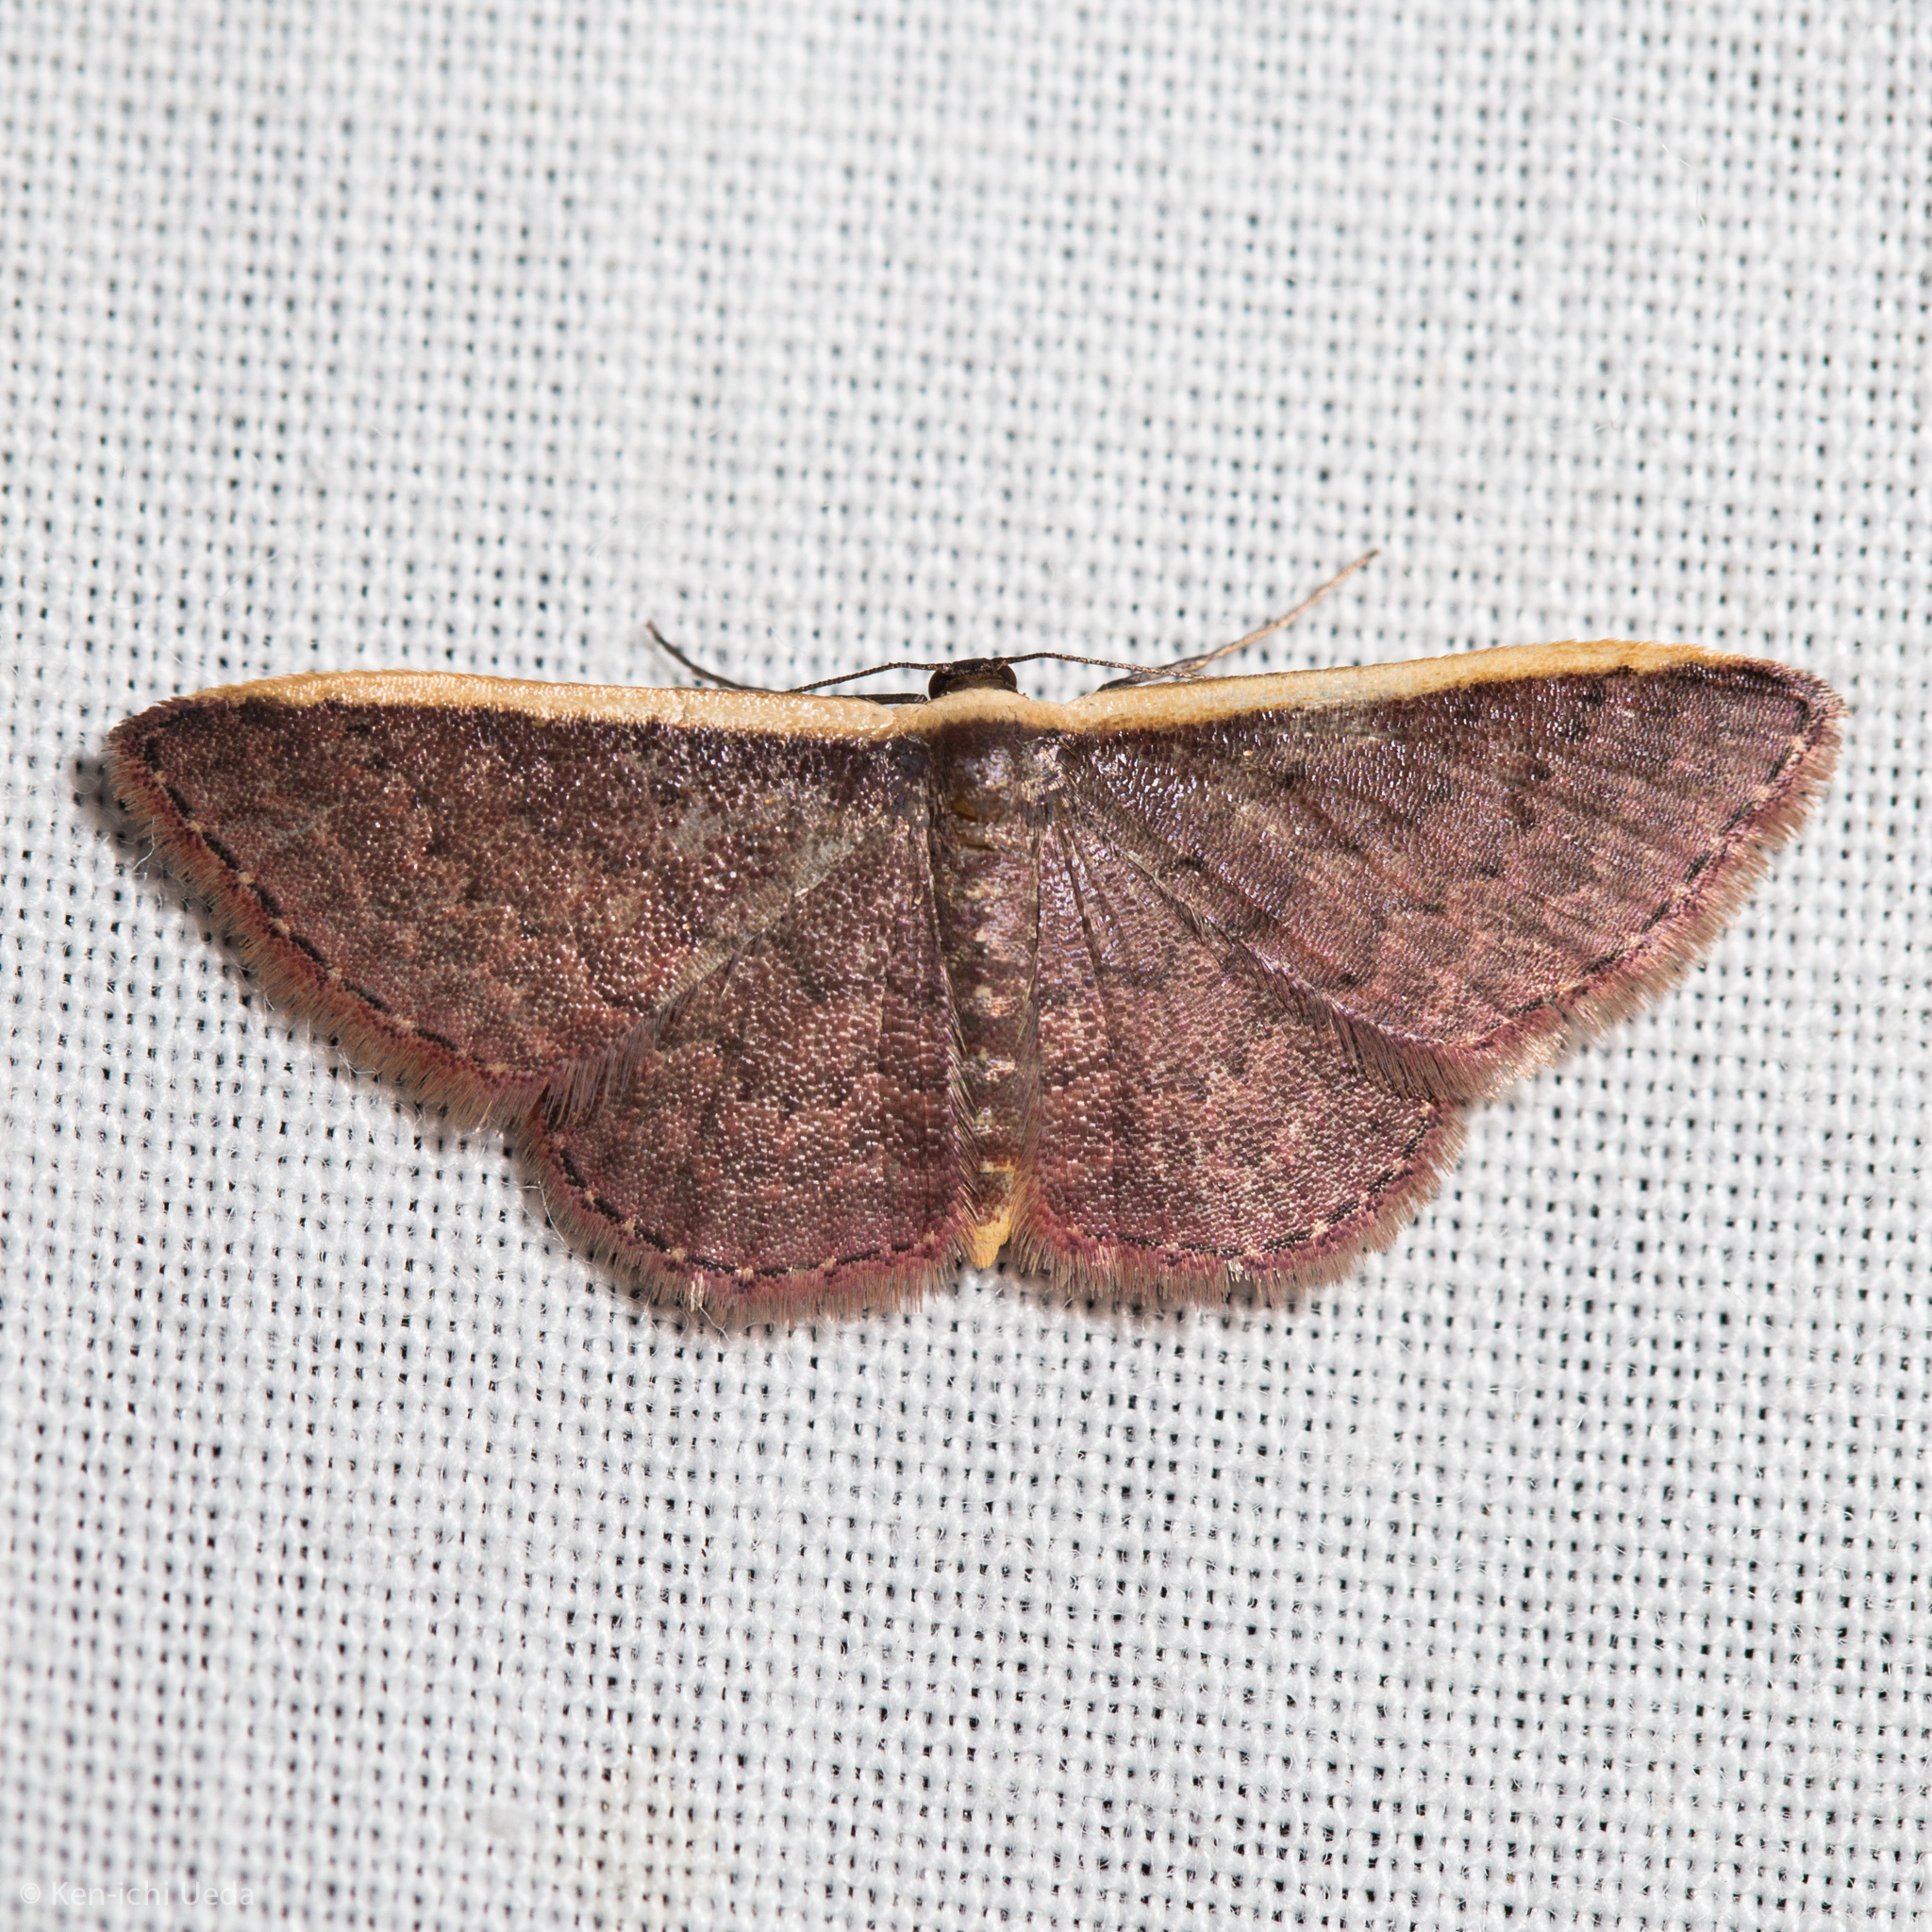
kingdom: Animalia
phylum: Arthropoda
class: Insecta
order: Lepidoptera
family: Geometridae
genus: Idaea
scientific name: Idaea inversata
